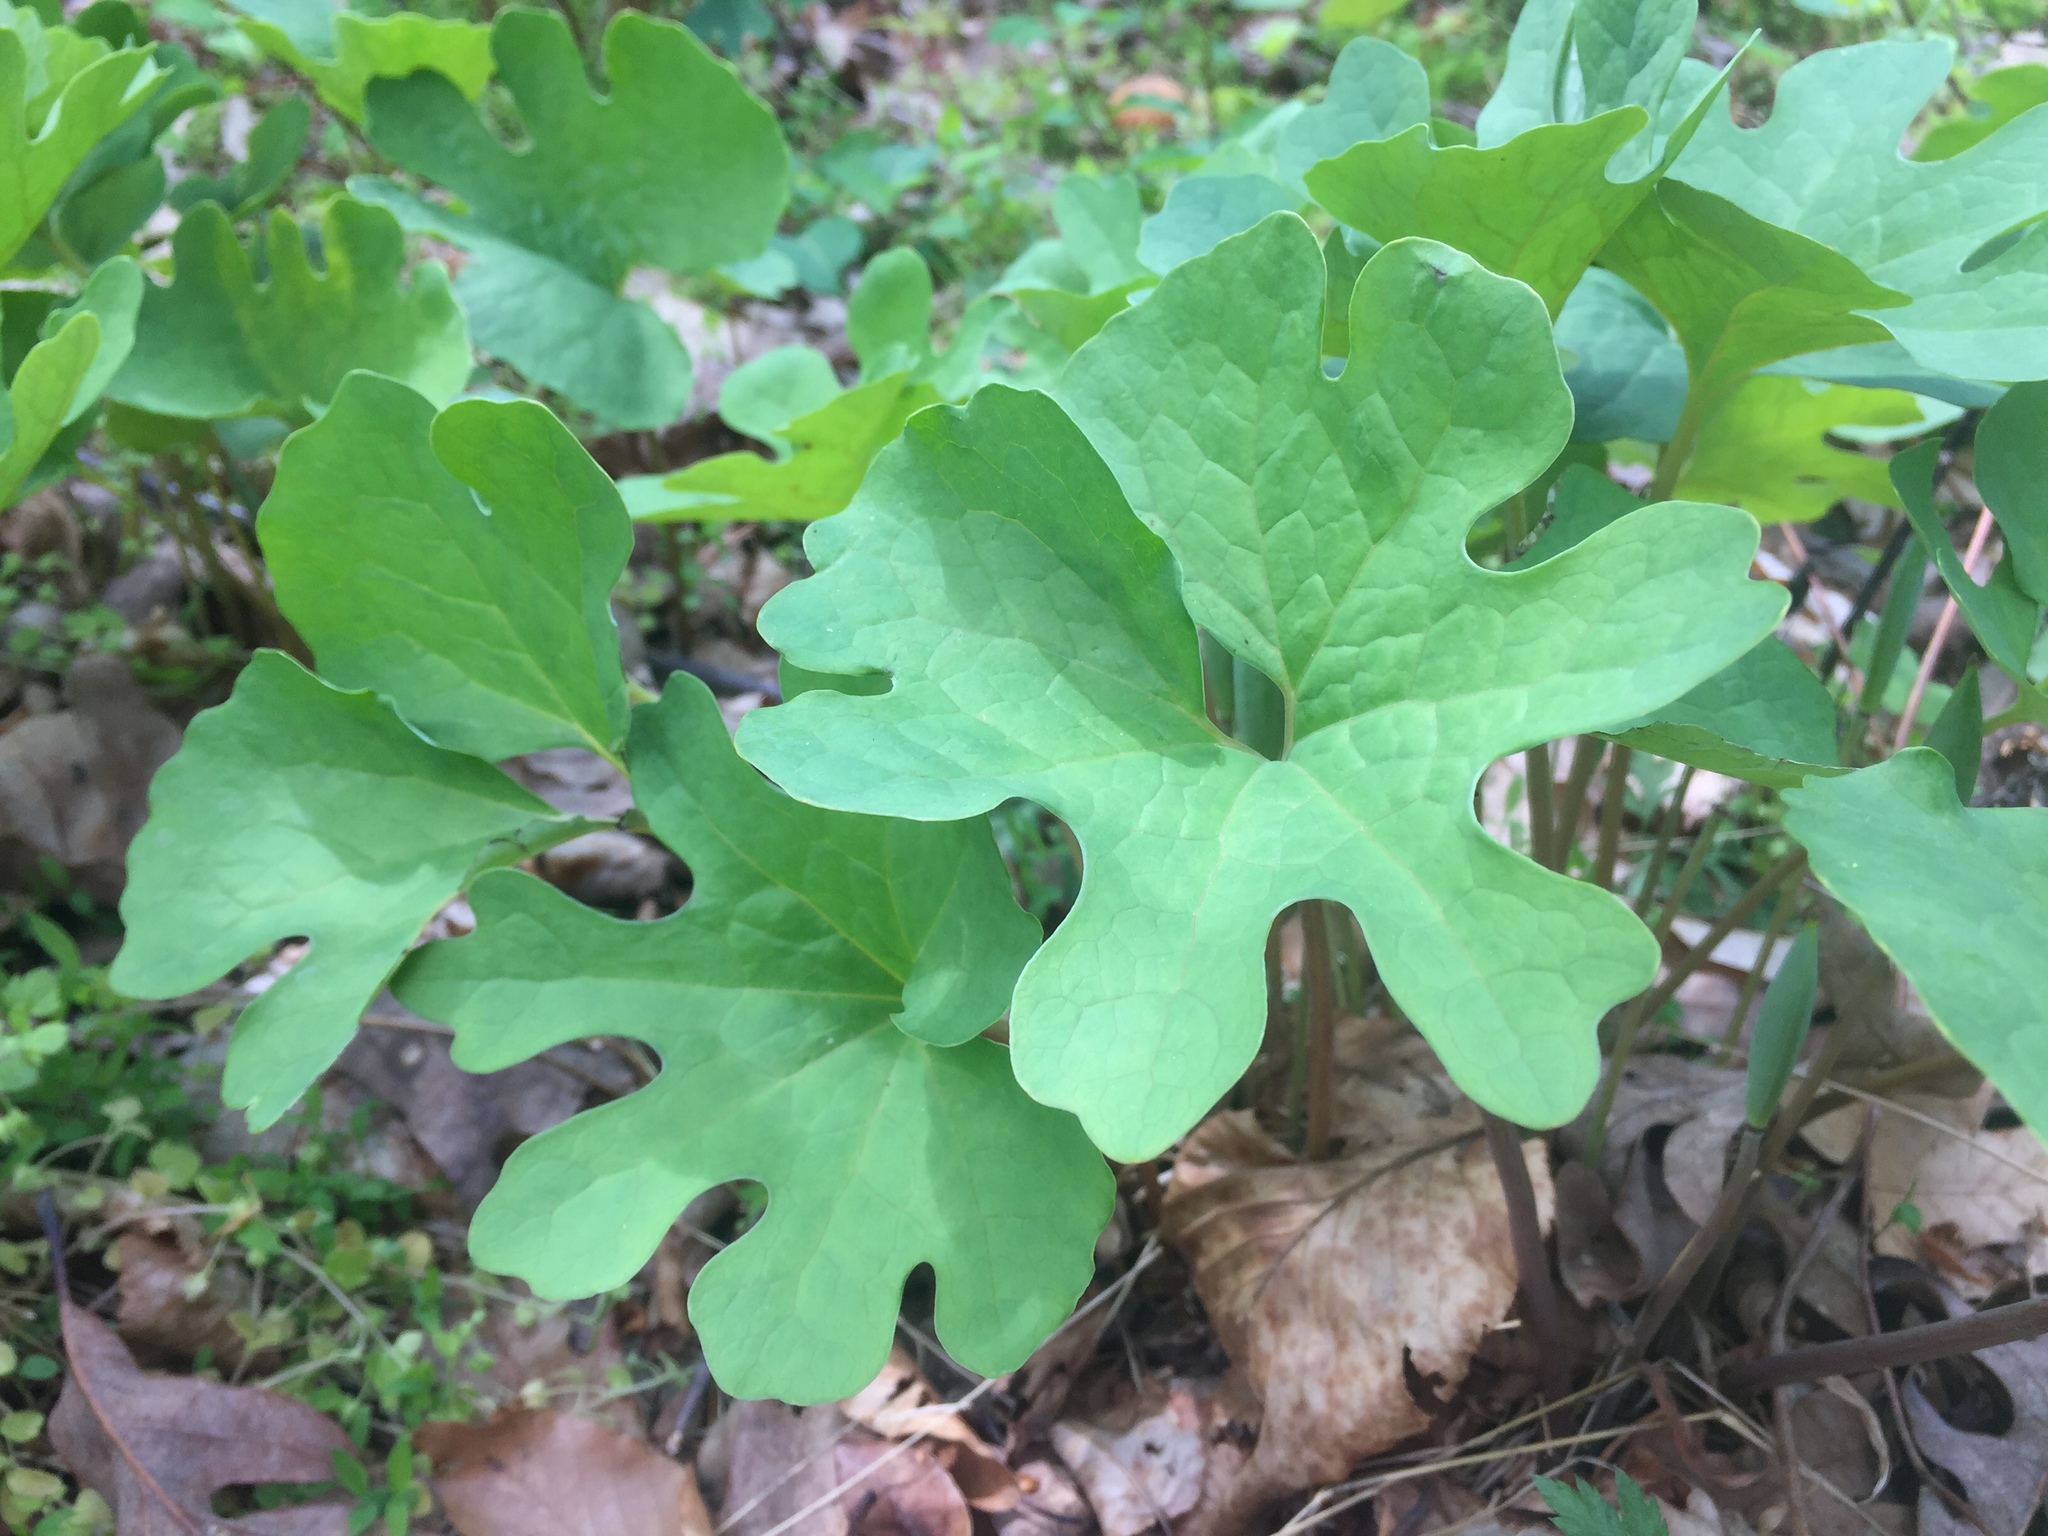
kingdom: Plantae
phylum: Tracheophyta
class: Magnoliopsida
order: Ranunculales
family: Papaveraceae
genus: Sanguinaria
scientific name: Sanguinaria canadensis
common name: Bloodroot
